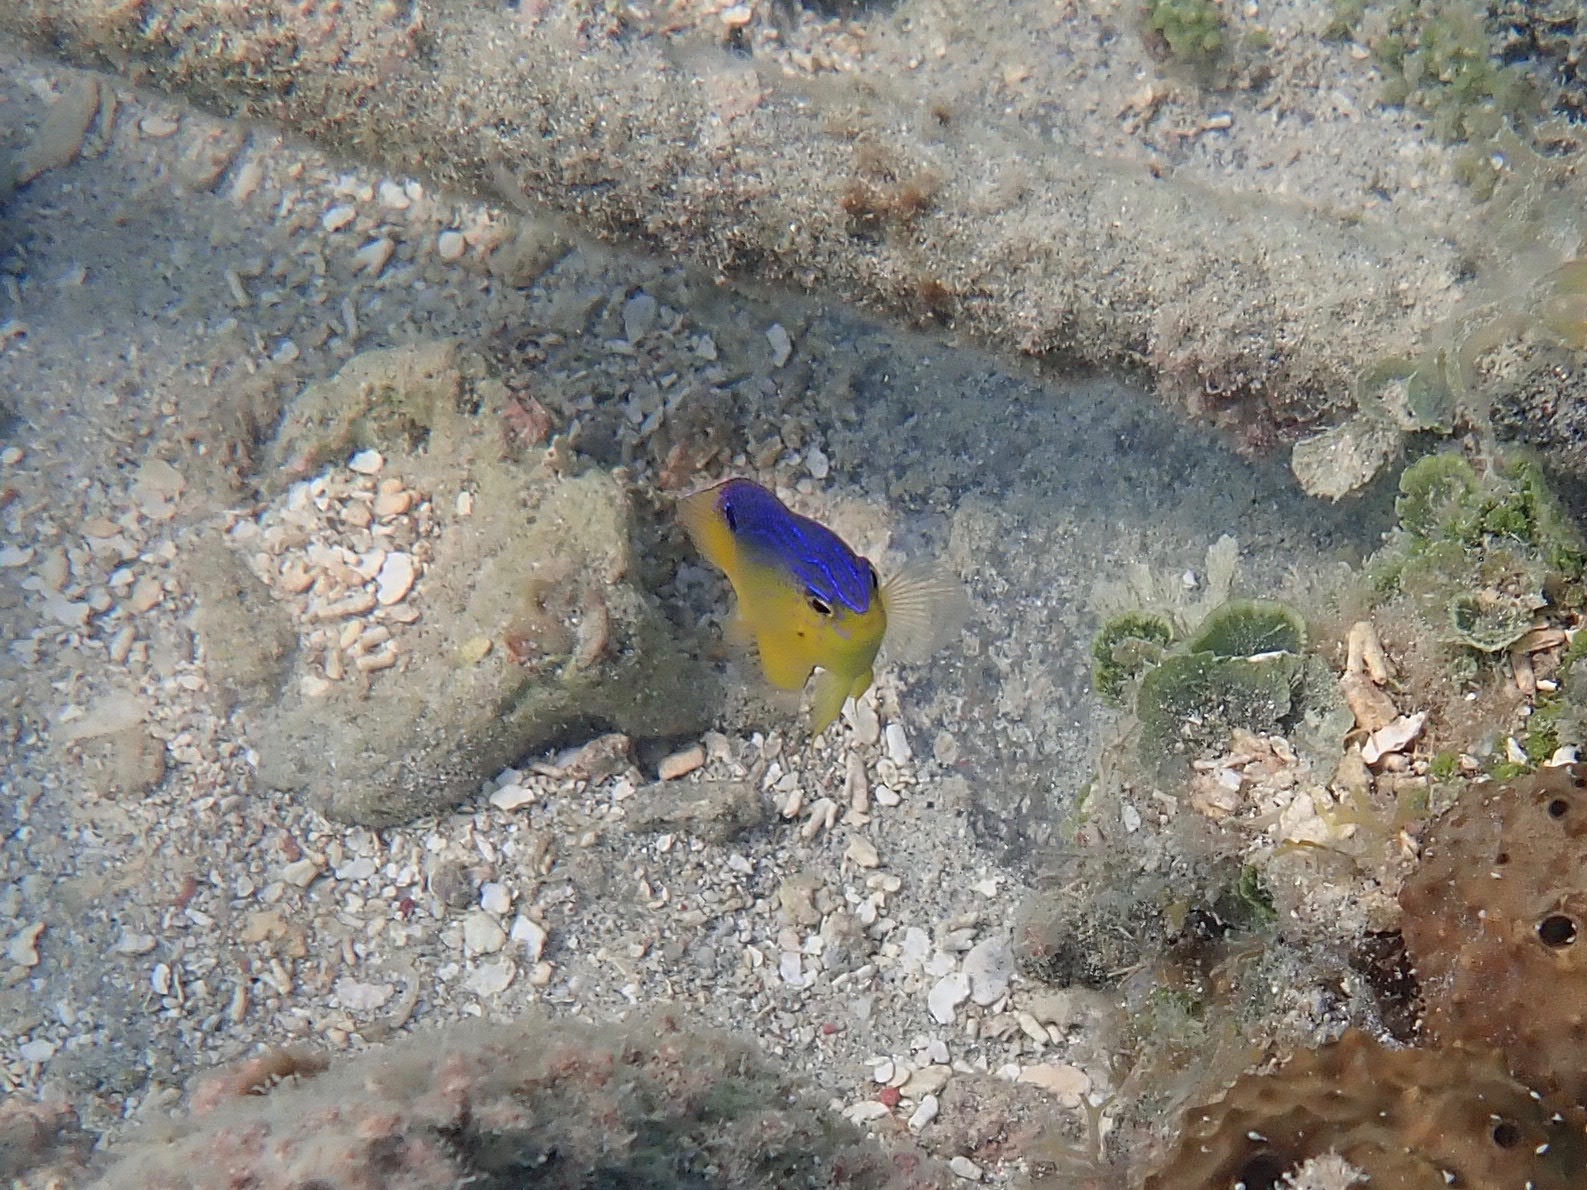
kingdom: Animalia
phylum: Chordata
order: Perciformes
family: Pomacentridae
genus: Stegastes
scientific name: Stegastes leucostictus
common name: Beaugregory
